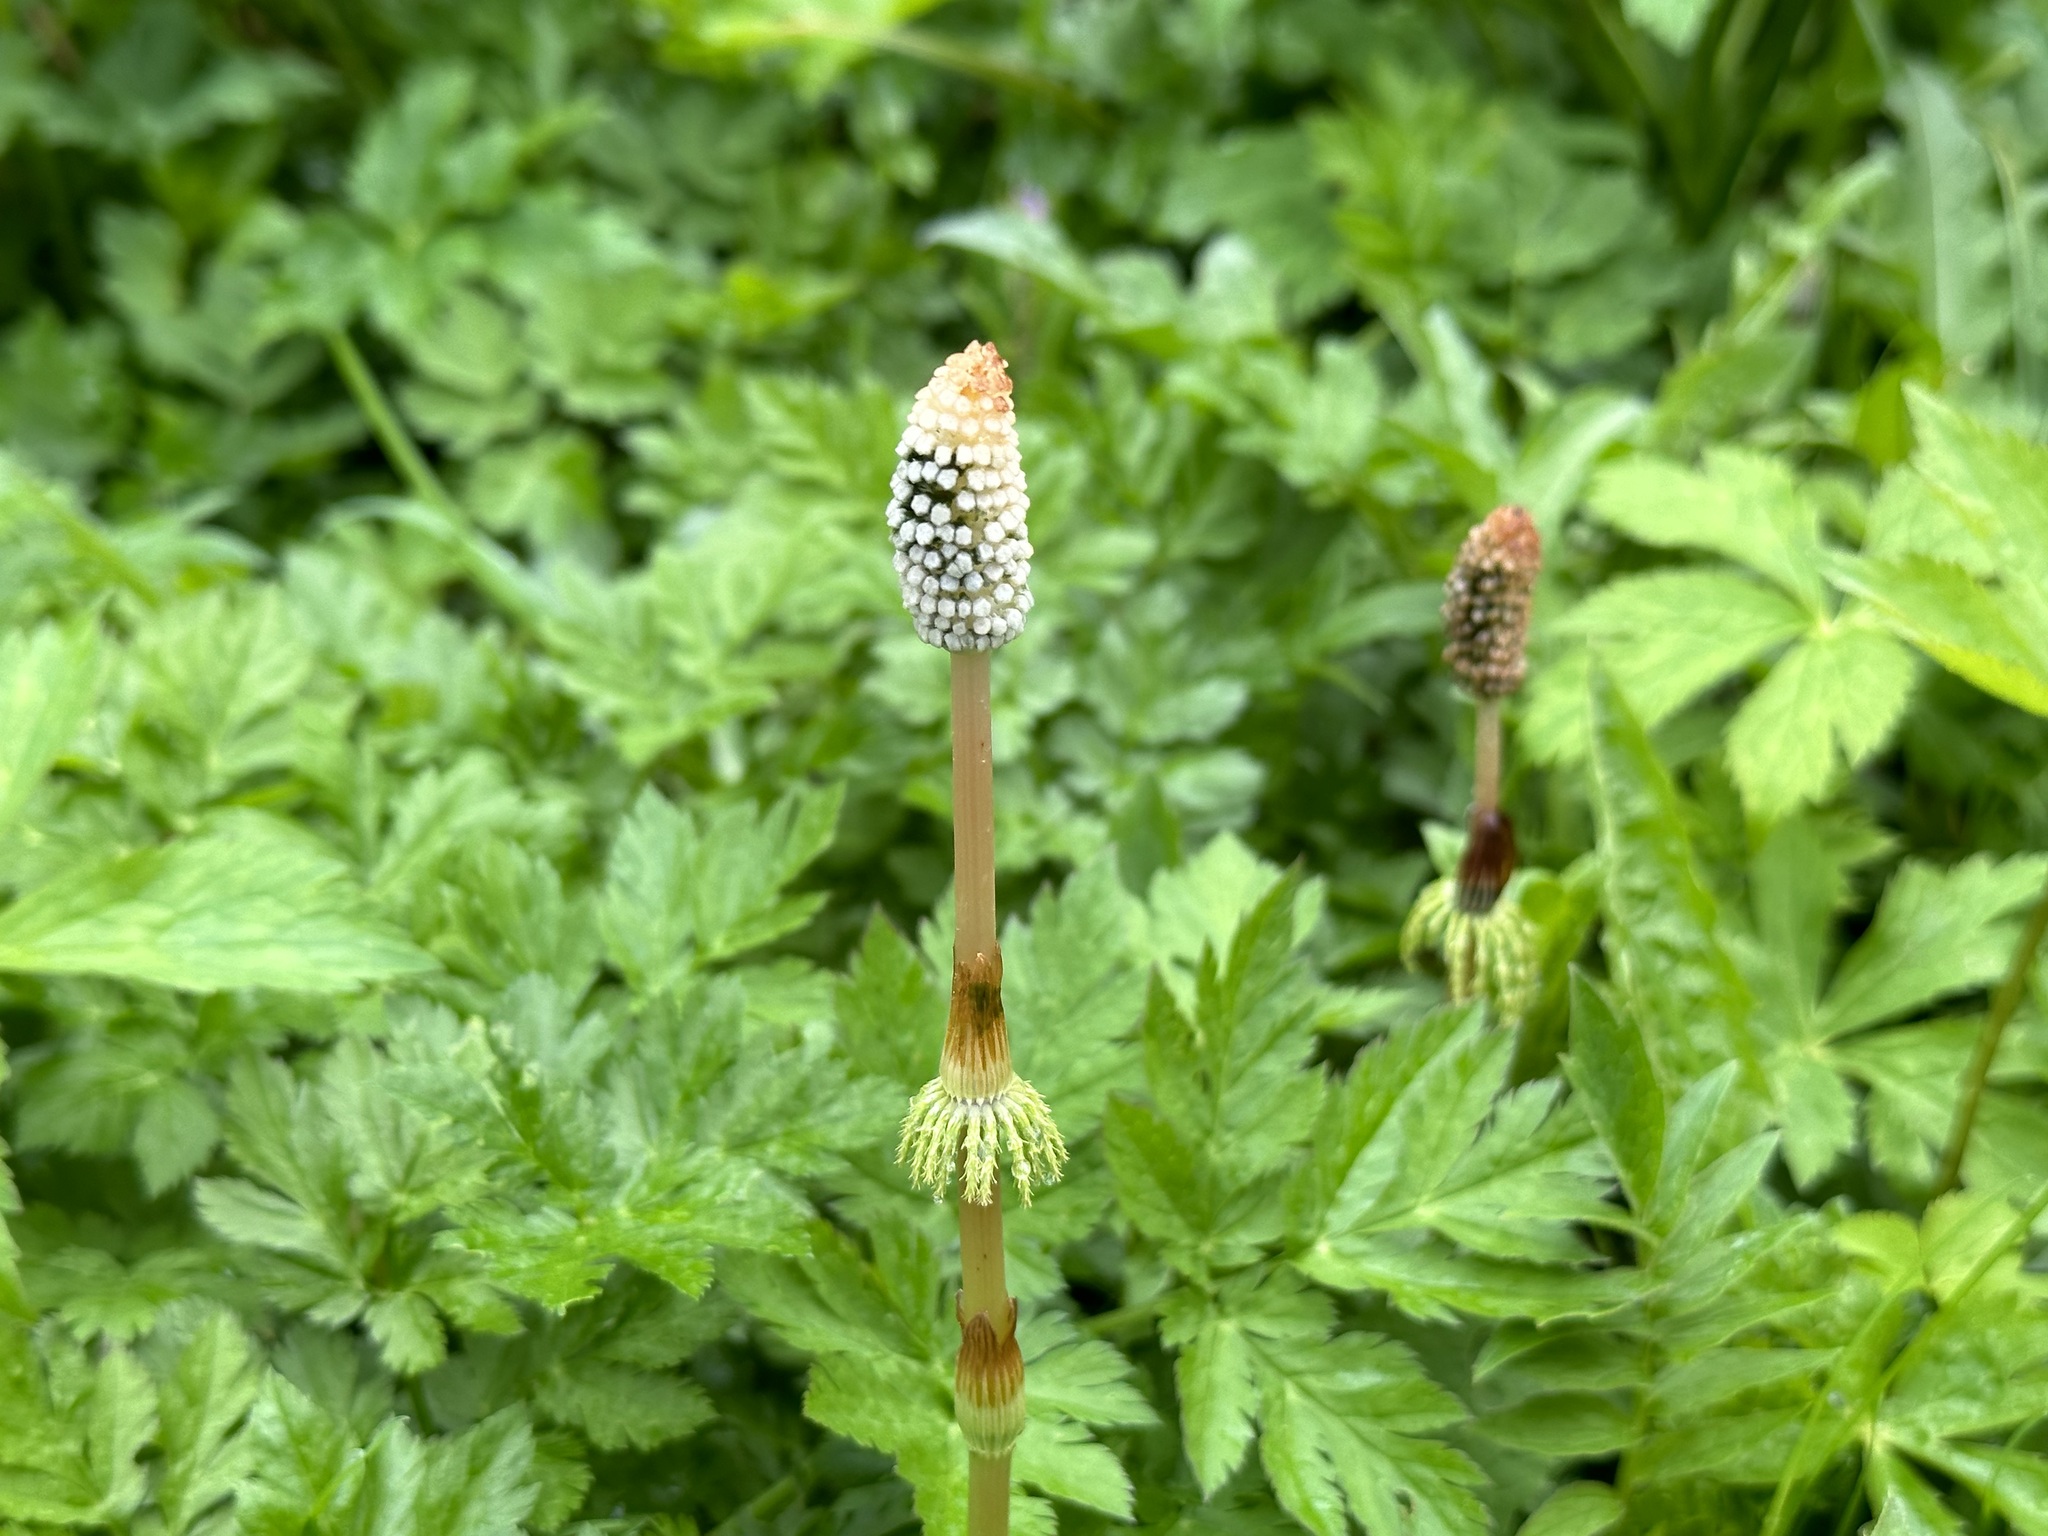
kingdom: Plantae
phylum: Tracheophyta
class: Polypodiopsida
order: Equisetales
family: Equisetaceae
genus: Equisetum
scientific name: Equisetum sylvaticum
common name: Wood horsetail
